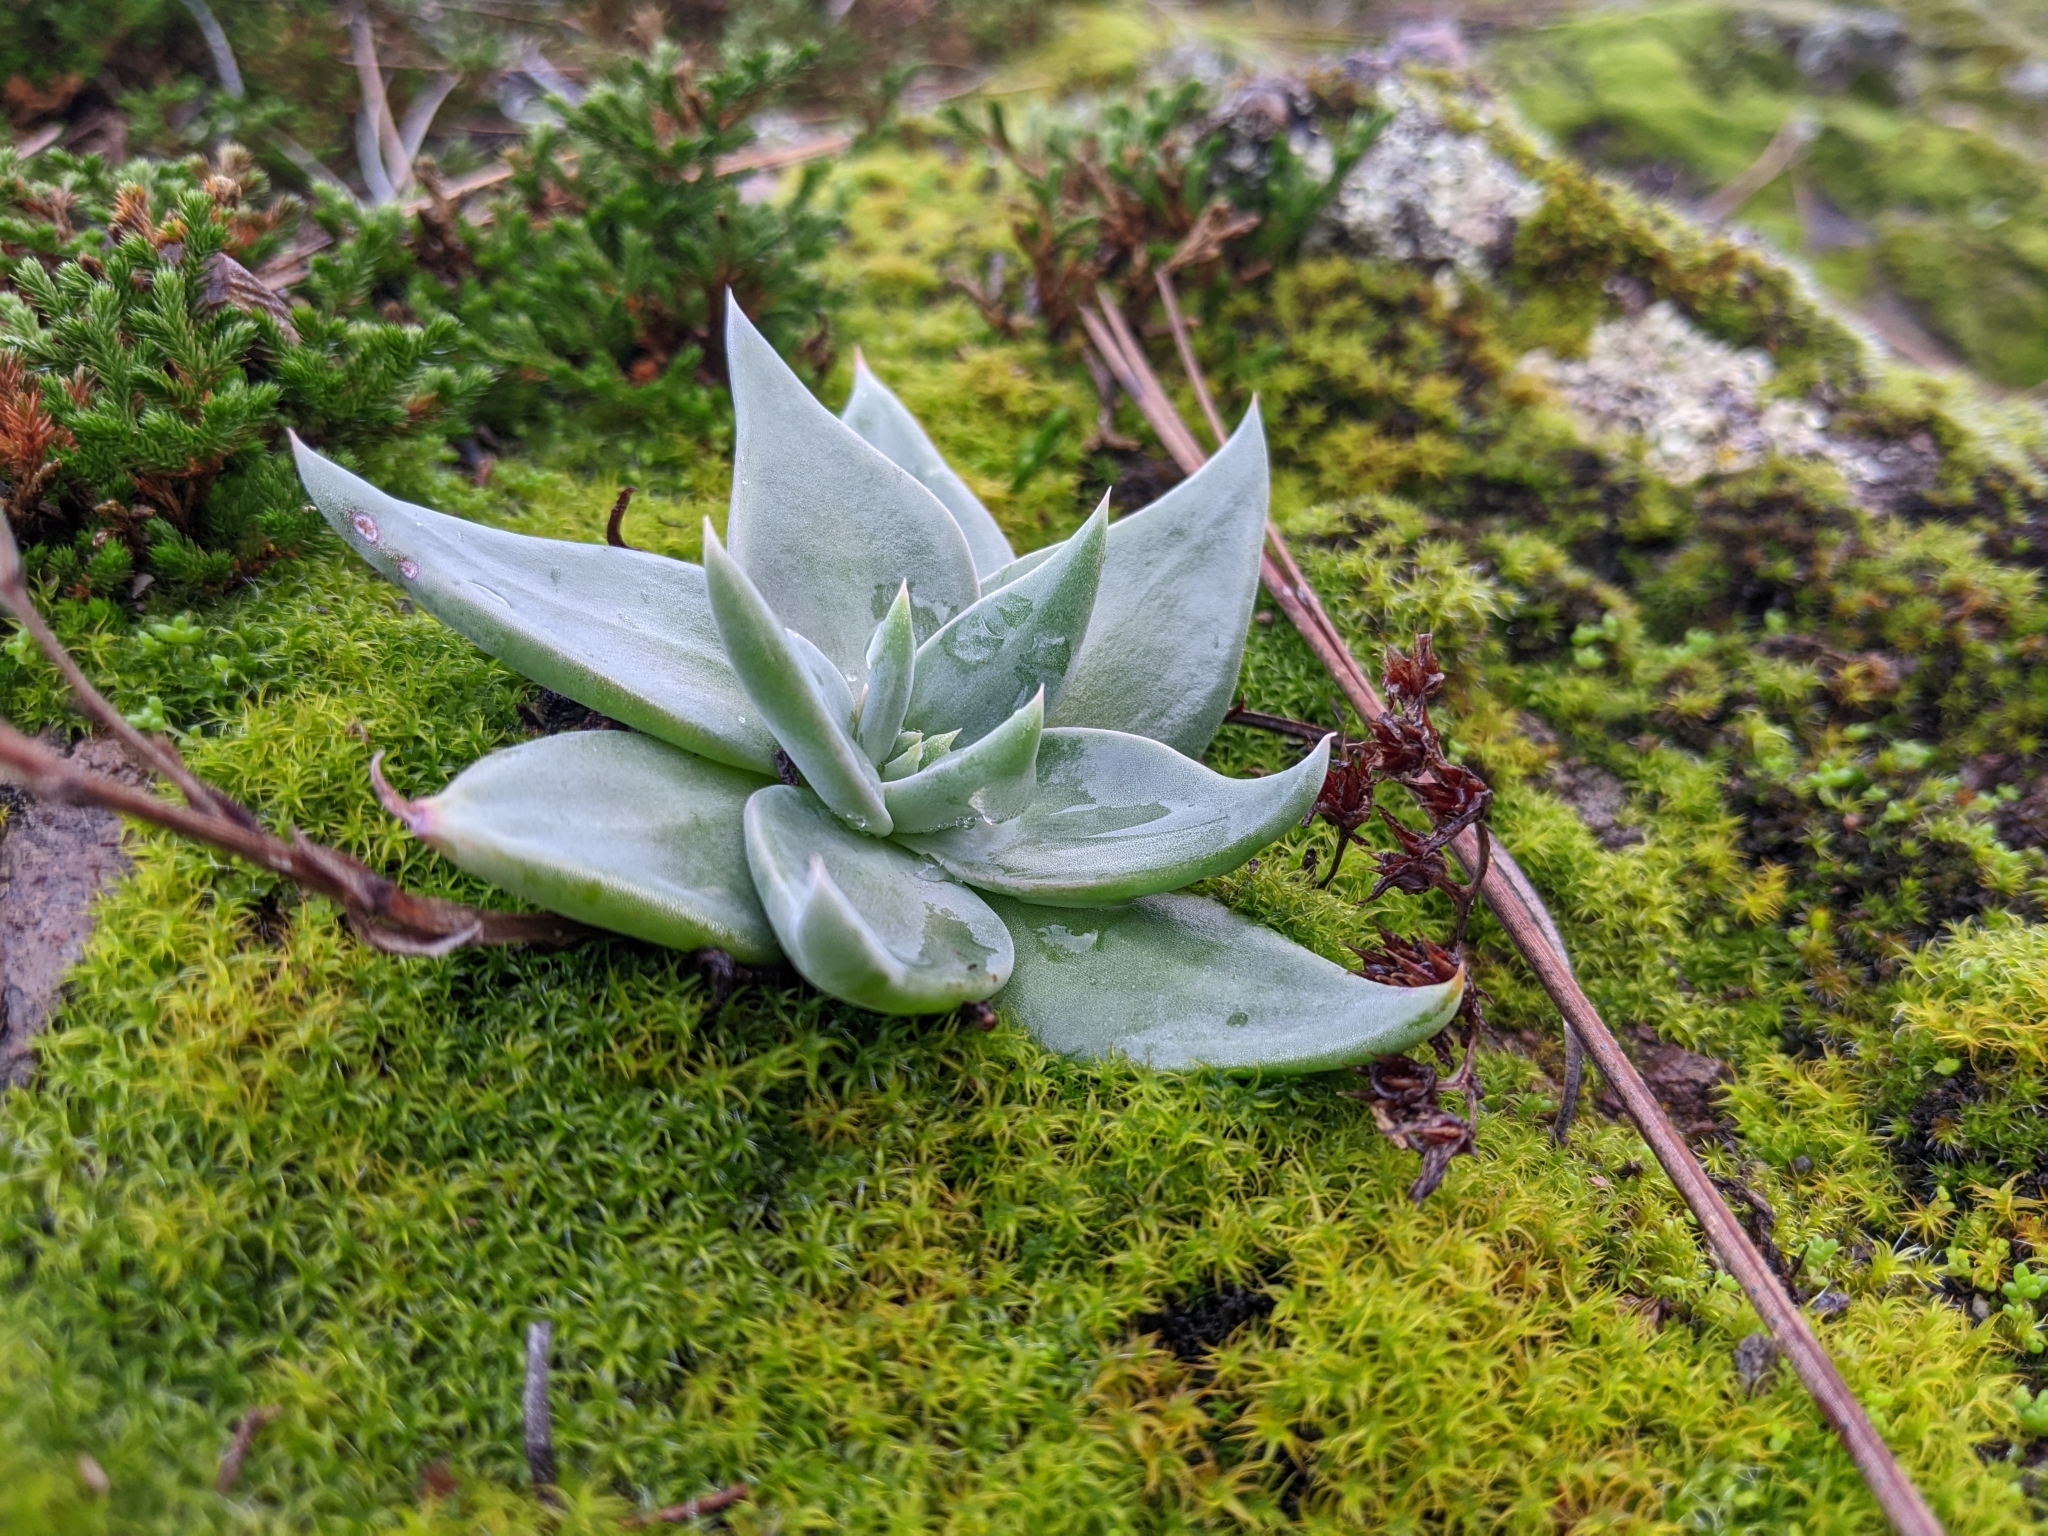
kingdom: Plantae
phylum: Tracheophyta
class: Magnoliopsida
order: Saxifragales
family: Crassulaceae
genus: Dudleya
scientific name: Dudleya cymosa
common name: Canyon dudleya
